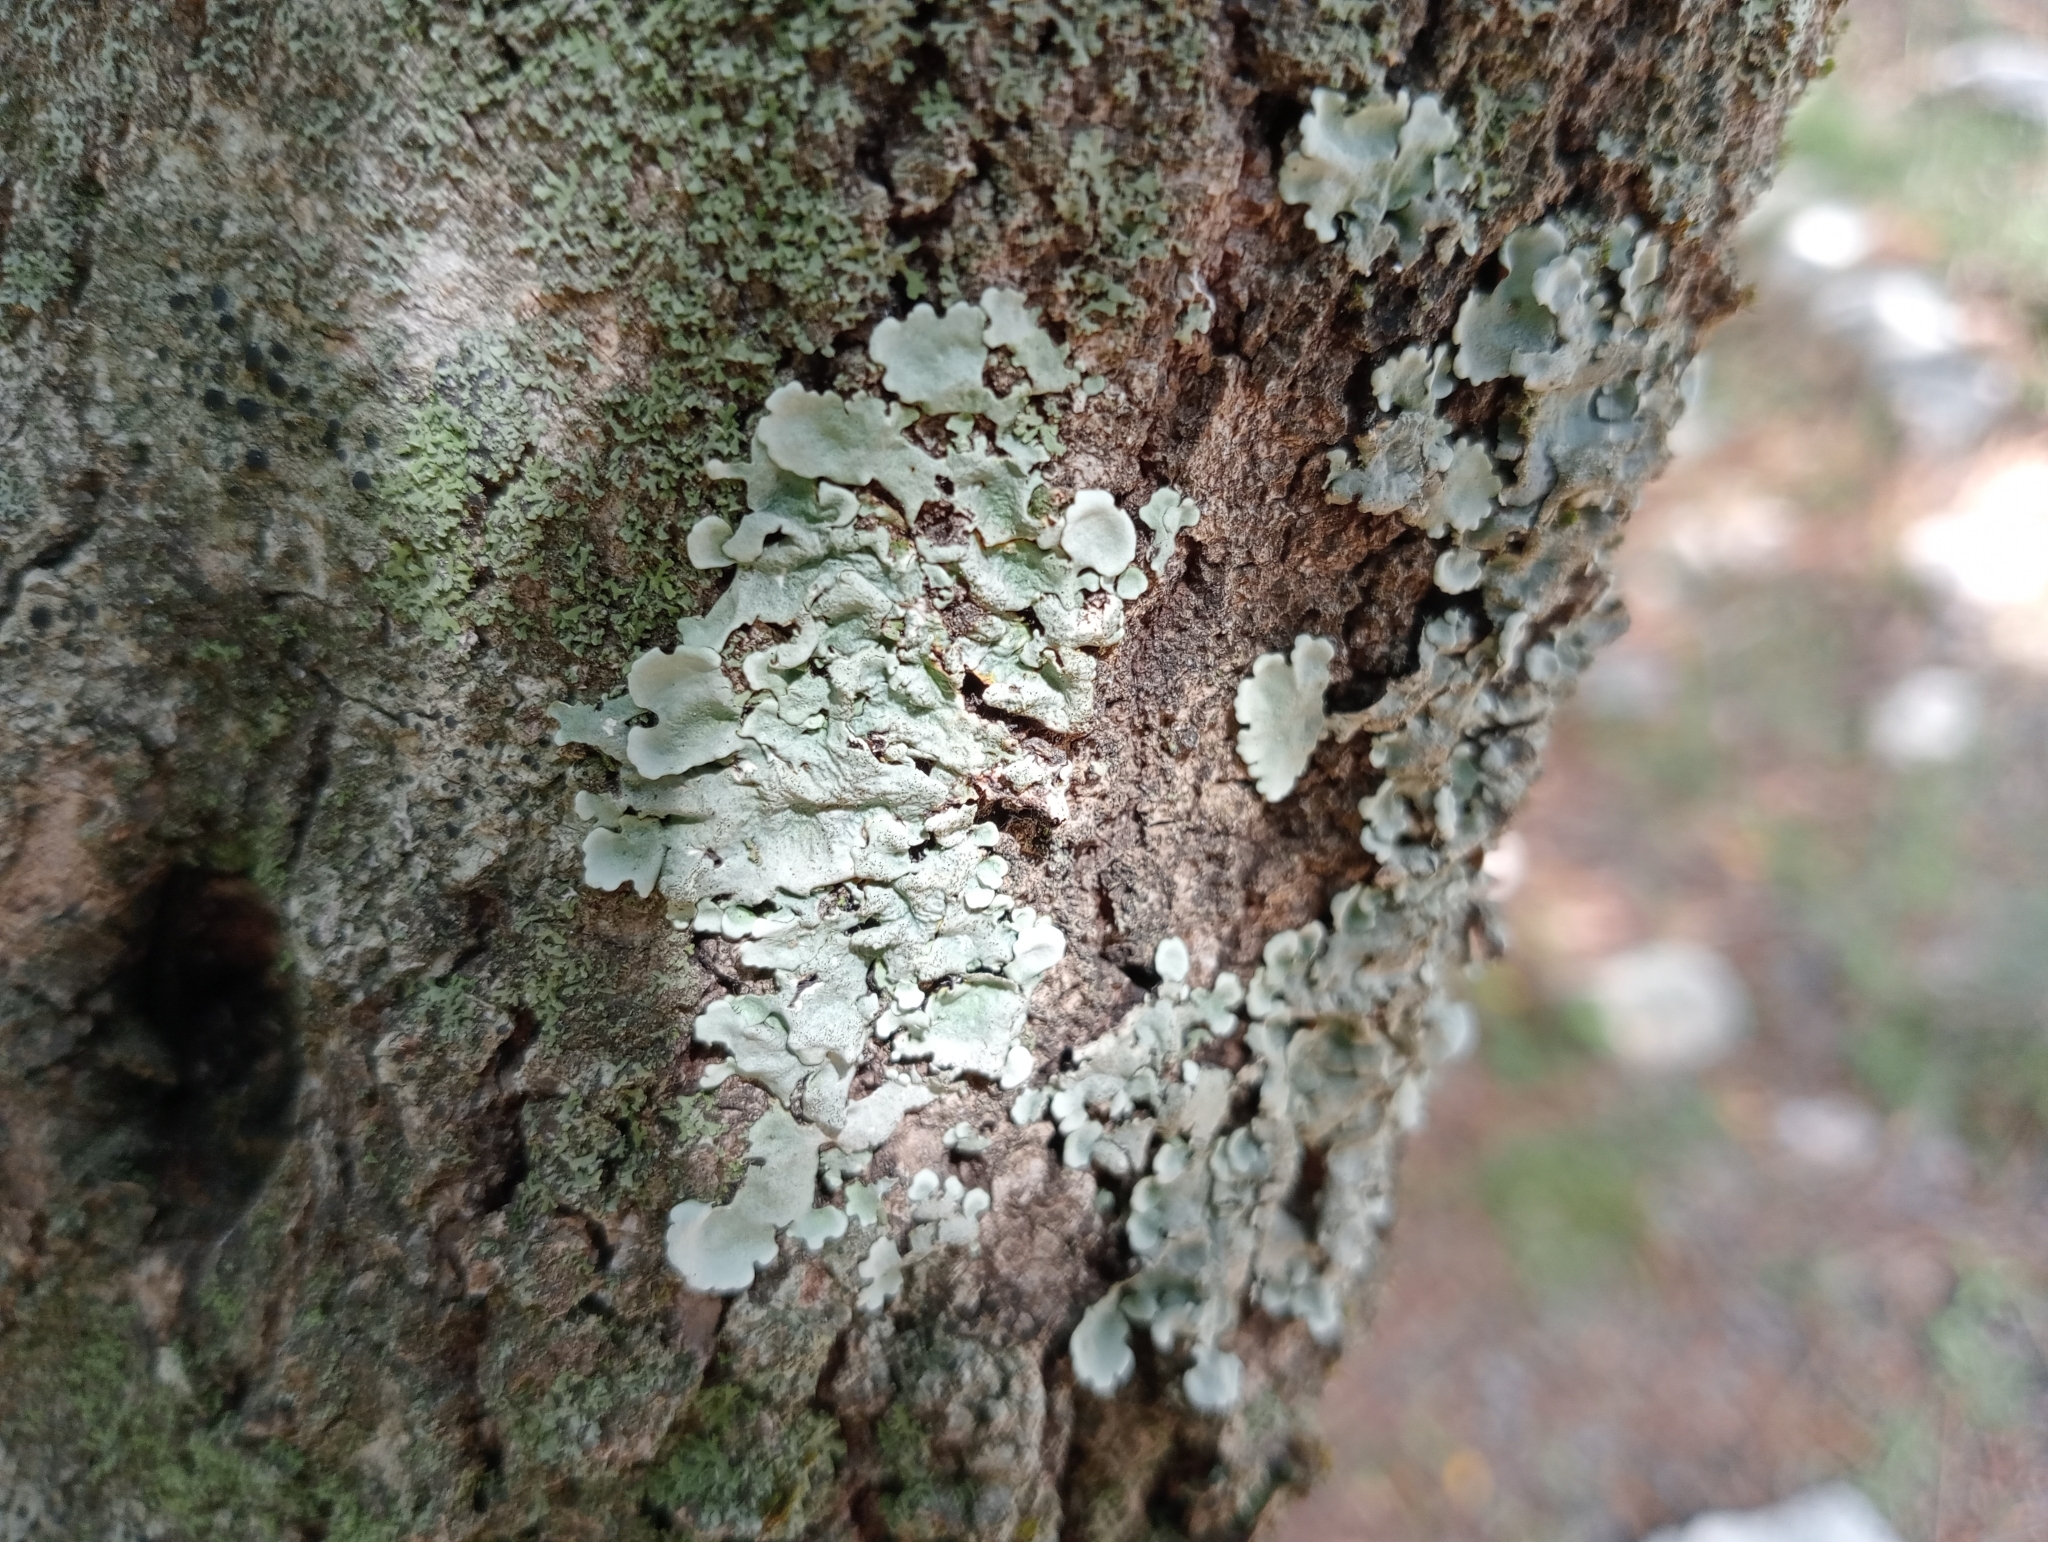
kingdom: Fungi
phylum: Ascomycota
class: Lecanoromycetes
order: Lecanorales
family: Parmeliaceae
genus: Parmelina
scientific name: Parmelina tiliacea
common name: Linden shield lichen
